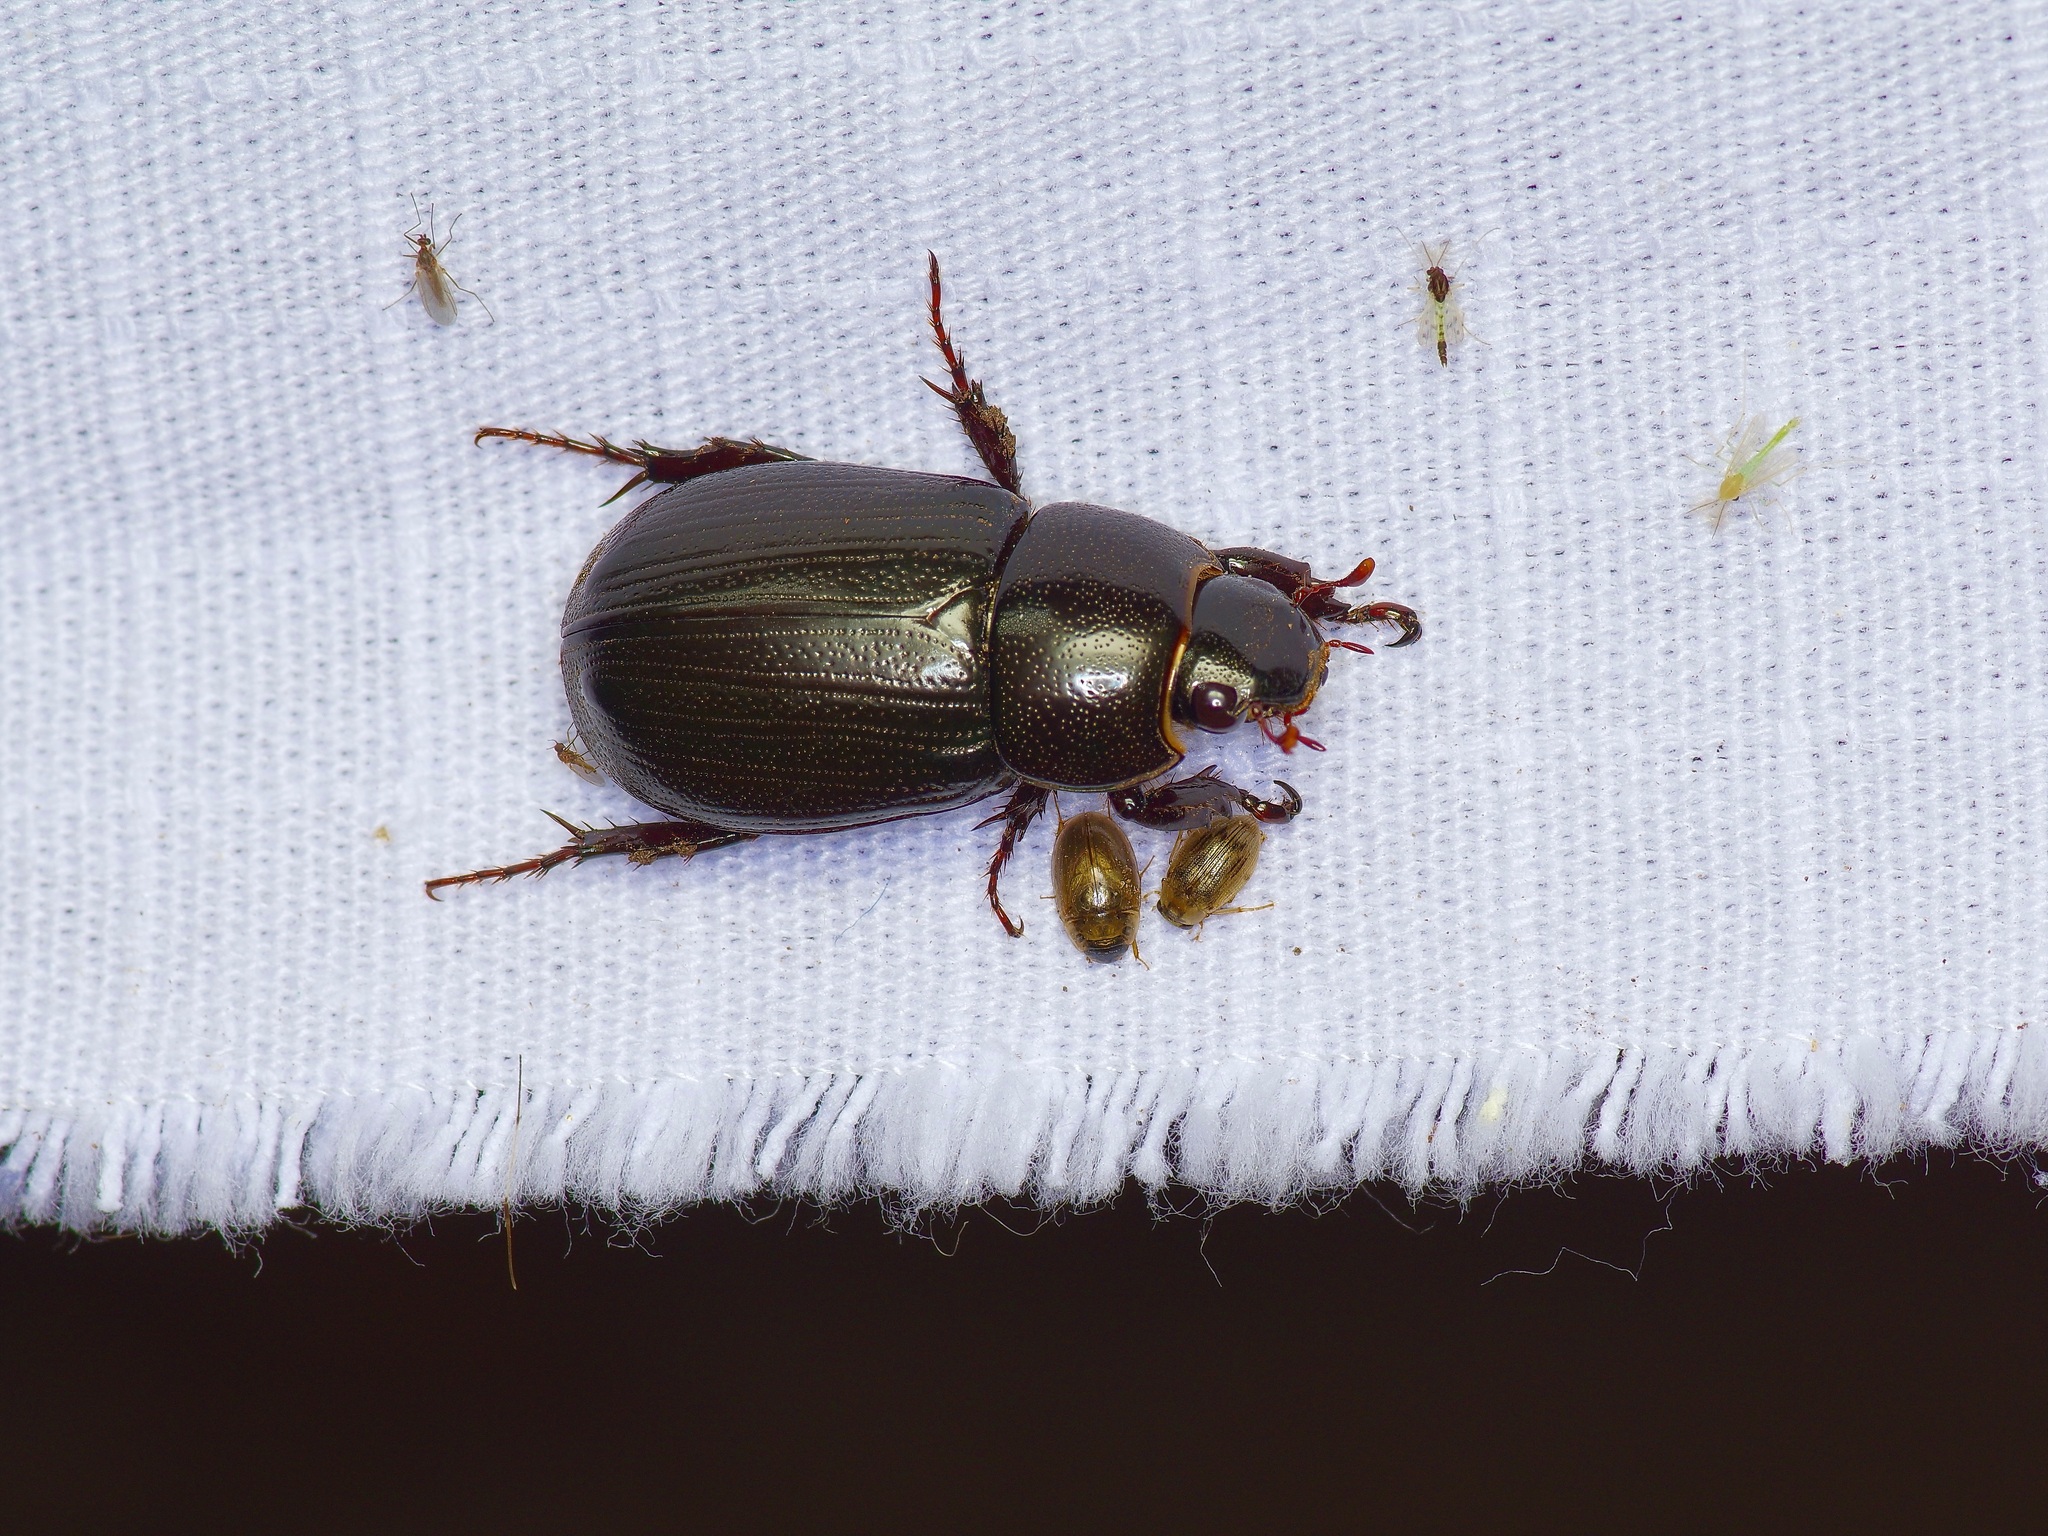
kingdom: Animalia
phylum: Arthropoda
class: Insecta
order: Coleoptera
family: Scarabaeidae
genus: Dyscinetus
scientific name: Dyscinetus morator
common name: Rice beetle
